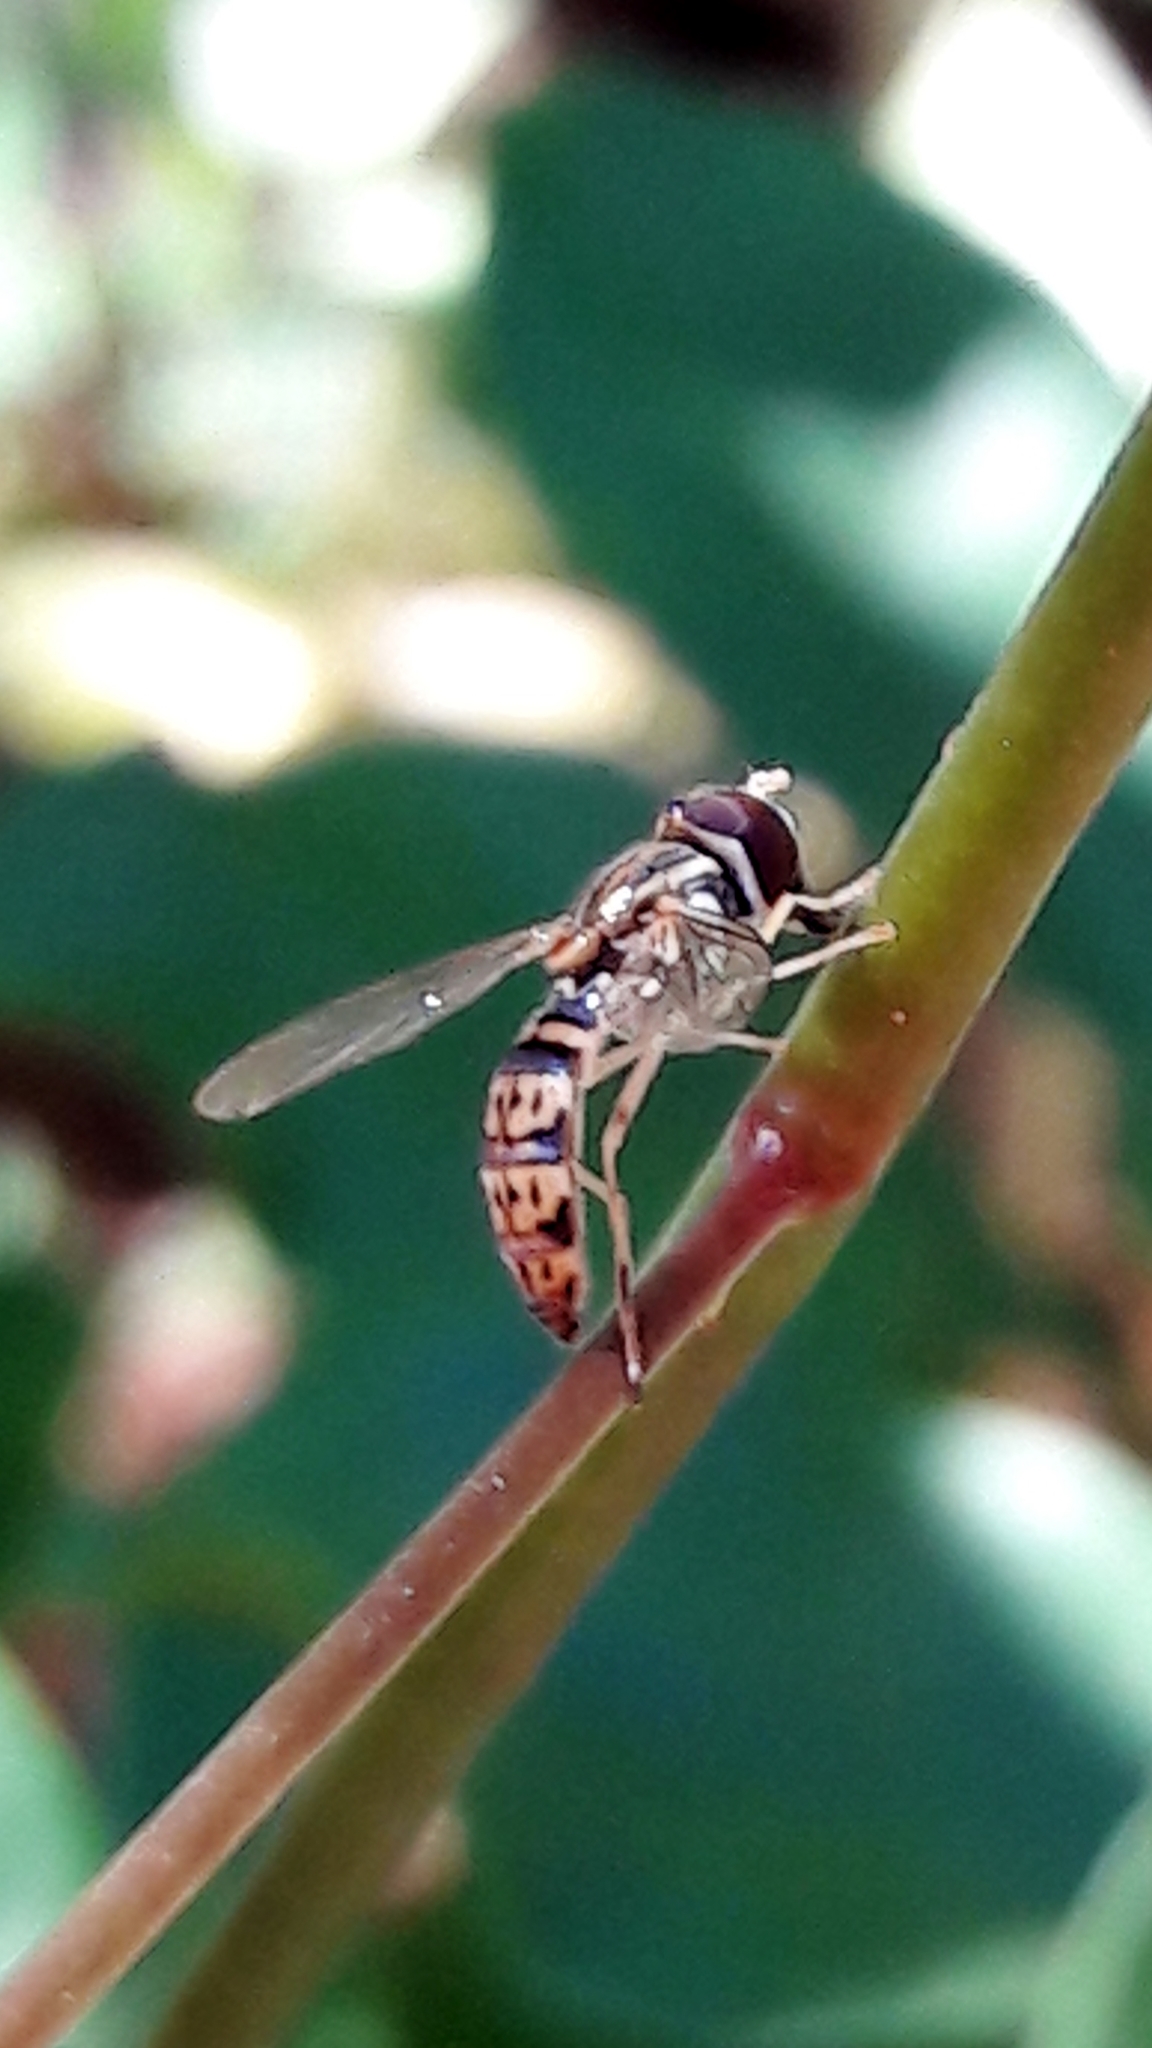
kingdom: Animalia
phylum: Arthropoda
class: Insecta
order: Diptera
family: Syrphidae
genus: Toxomerus
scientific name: Toxomerus
